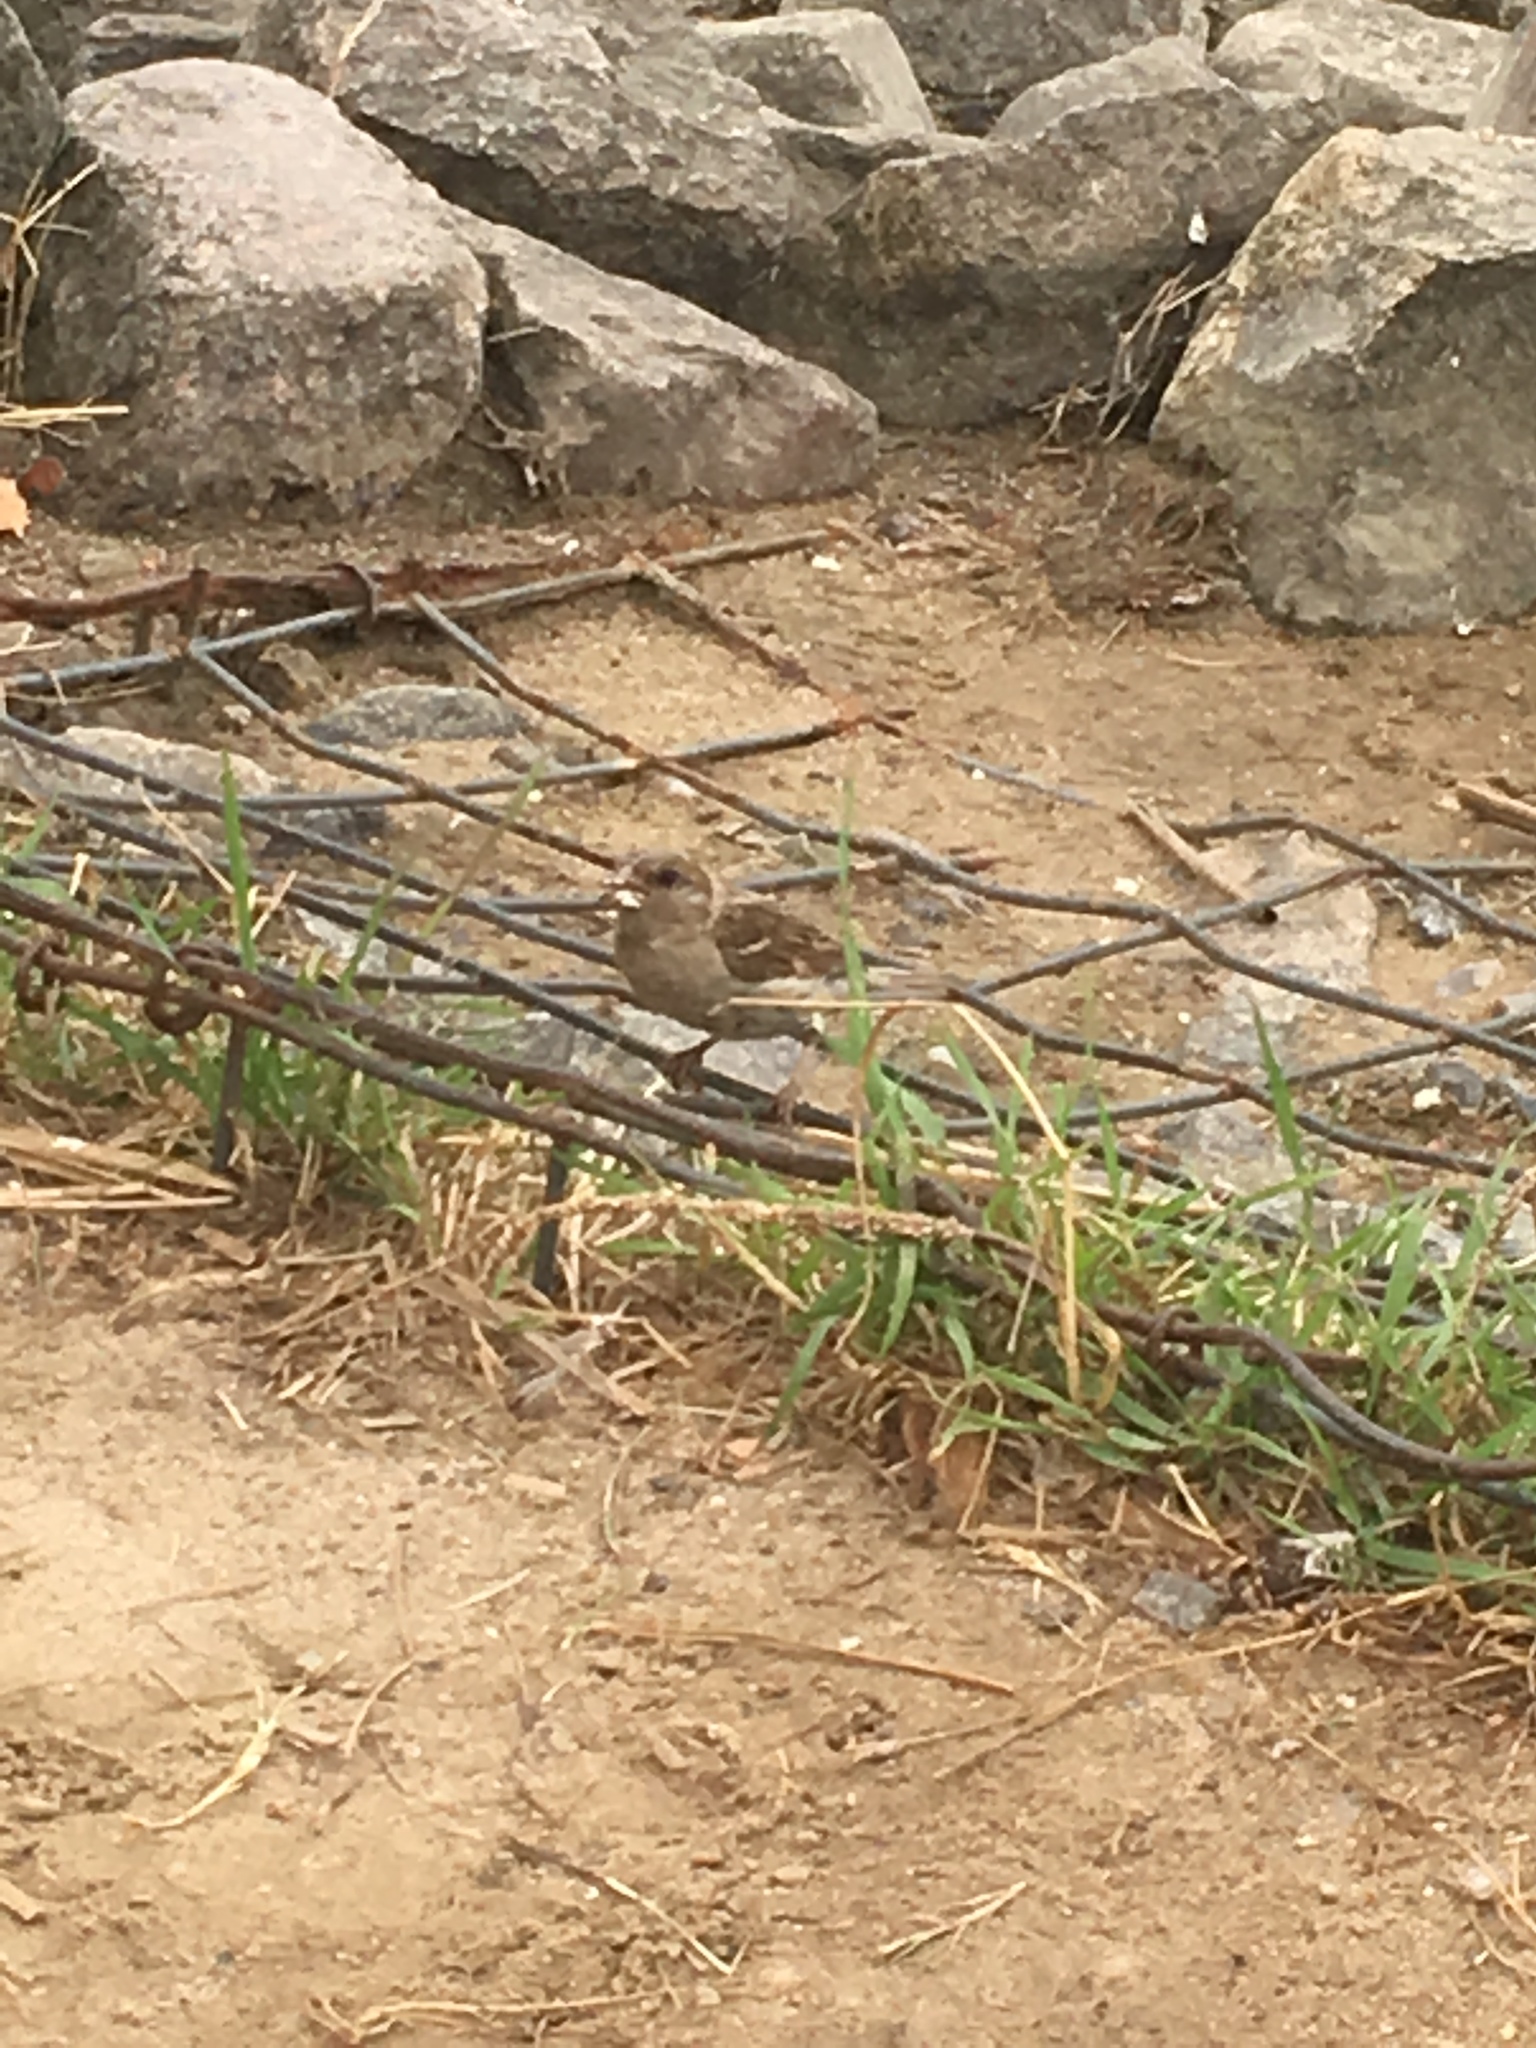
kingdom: Animalia
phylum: Chordata
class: Aves
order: Passeriformes
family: Passeridae
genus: Passer
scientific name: Passer domesticus
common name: House sparrow
